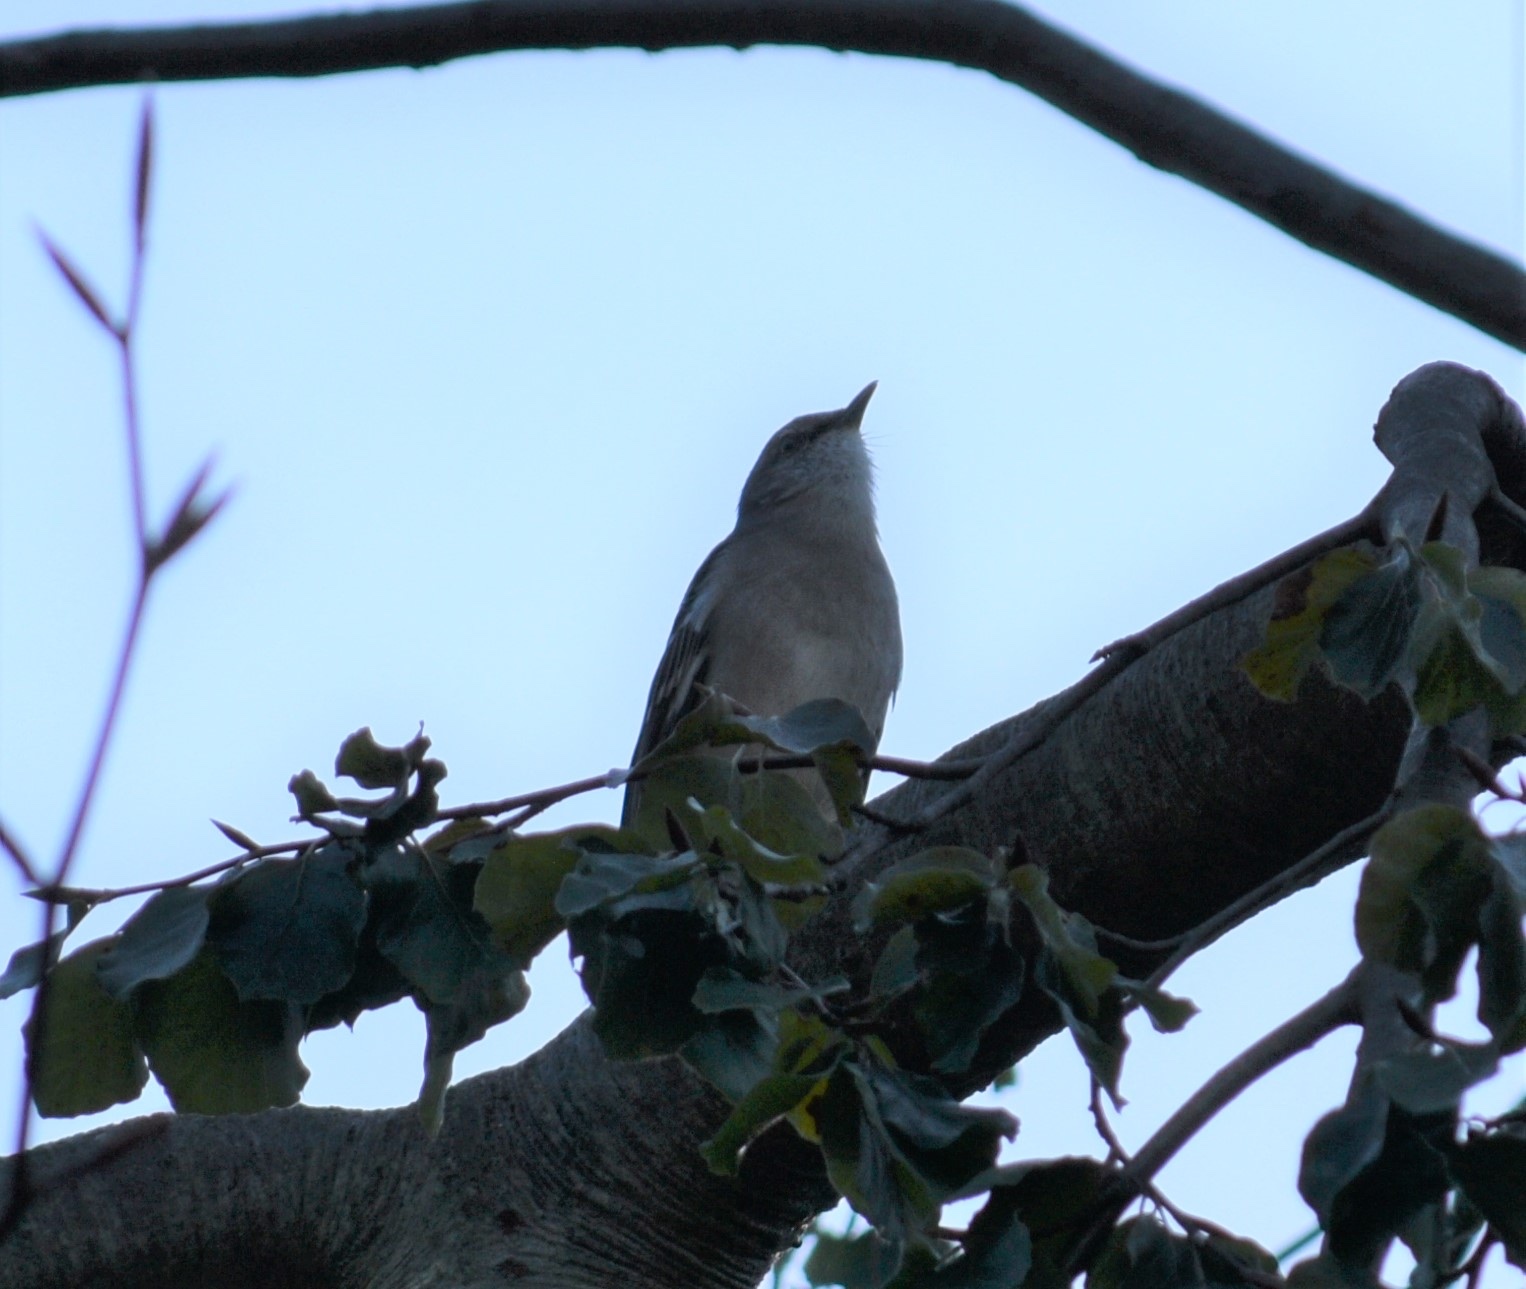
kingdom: Animalia
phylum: Chordata
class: Aves
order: Passeriformes
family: Mimidae
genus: Mimus
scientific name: Mimus polyglottos
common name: Northern mockingbird
